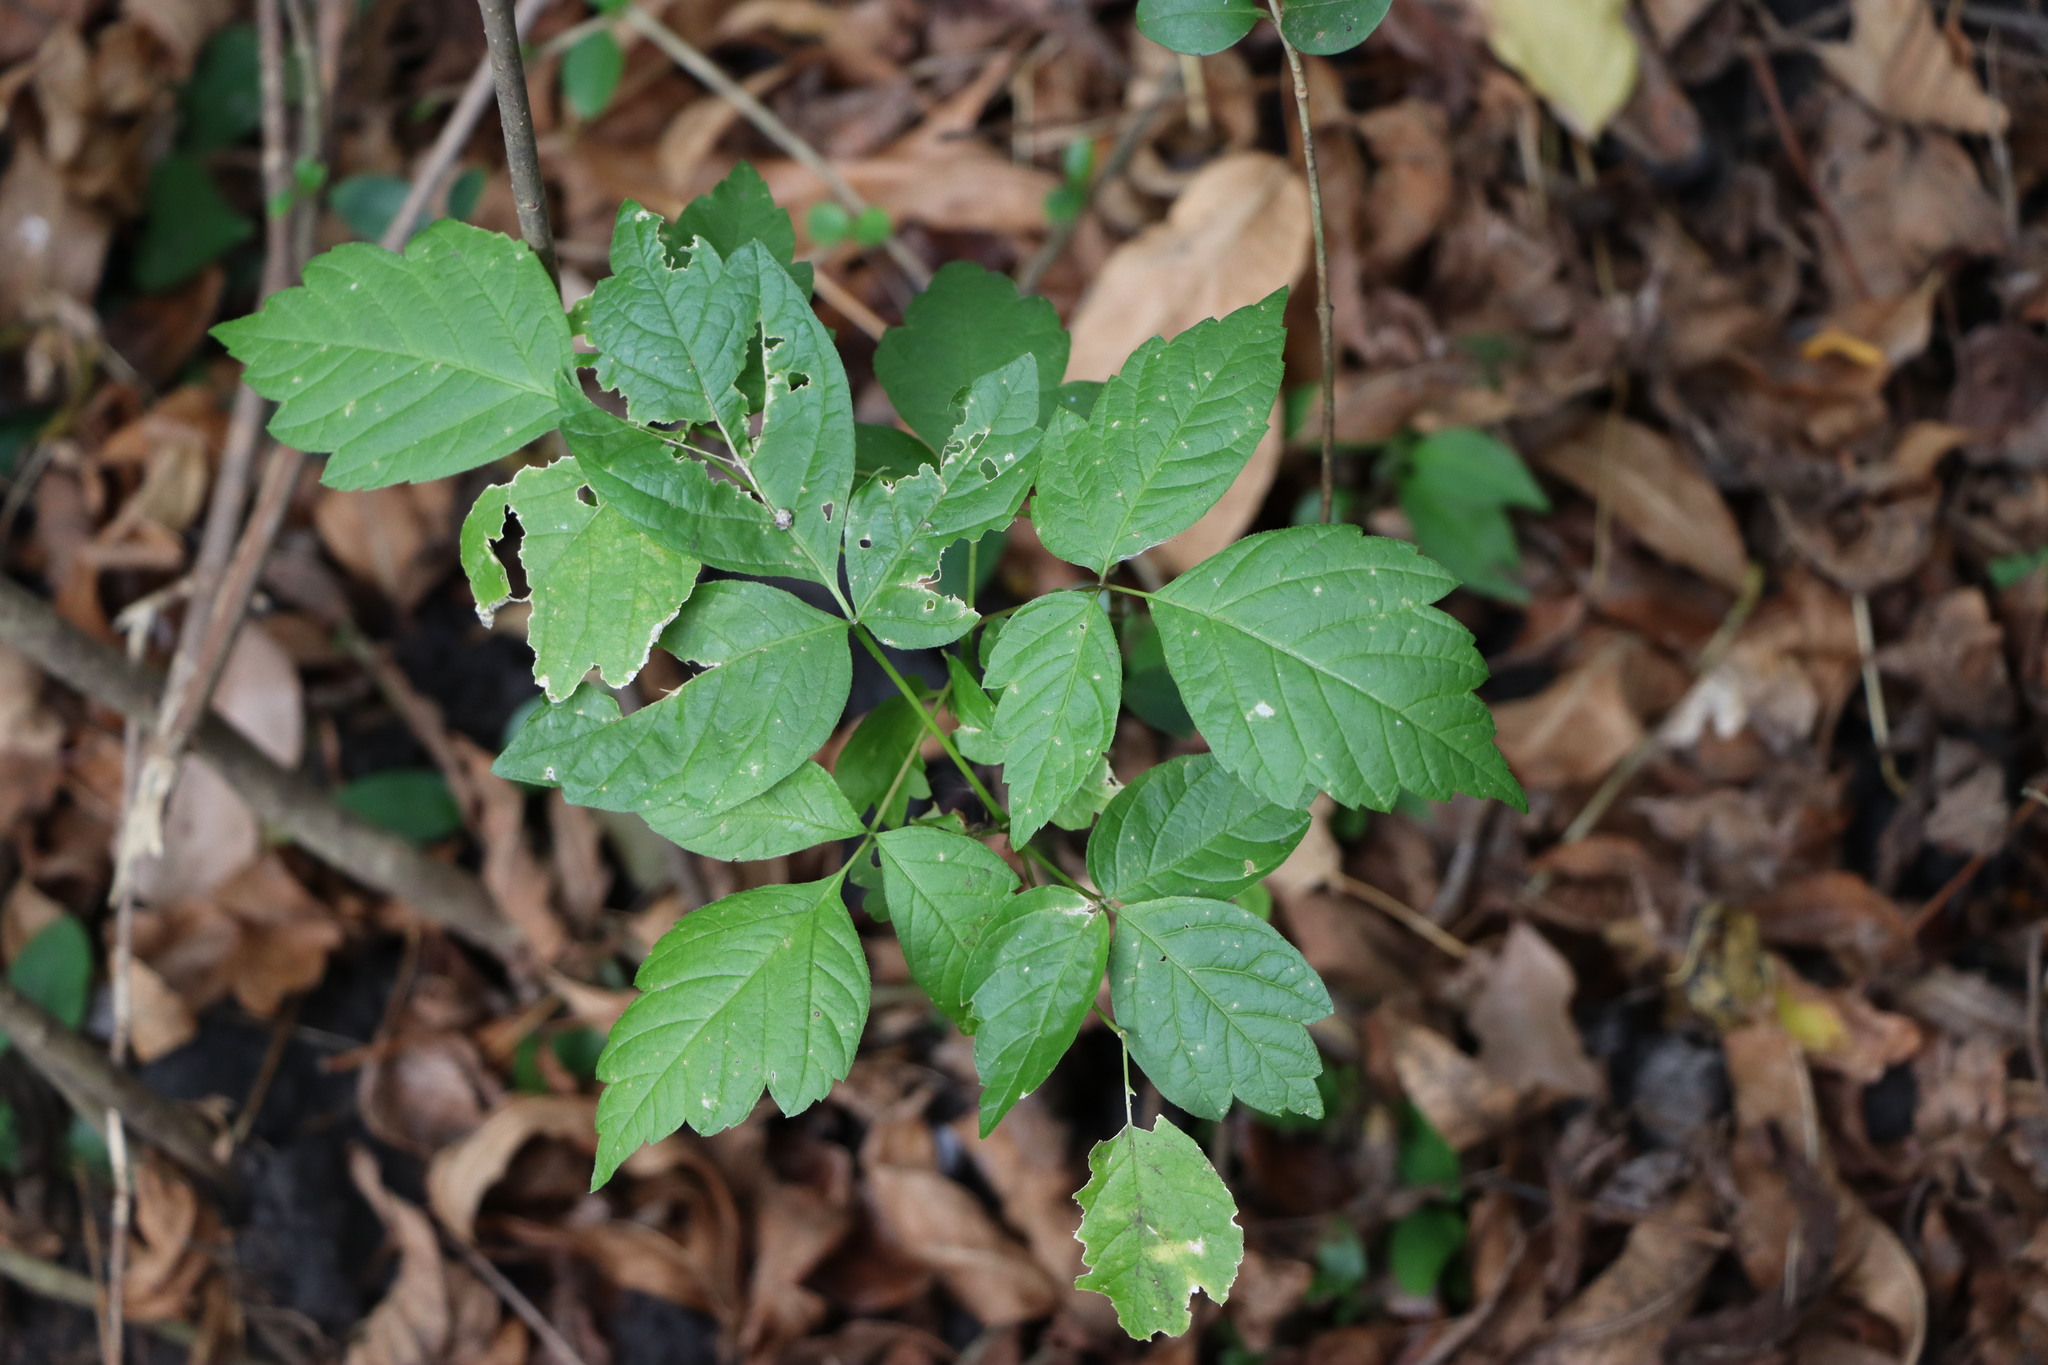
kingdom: Plantae
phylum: Tracheophyta
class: Magnoliopsida
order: Sapindales
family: Sapindaceae
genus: Acer
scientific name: Acer negundo
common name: Ashleaf maple
